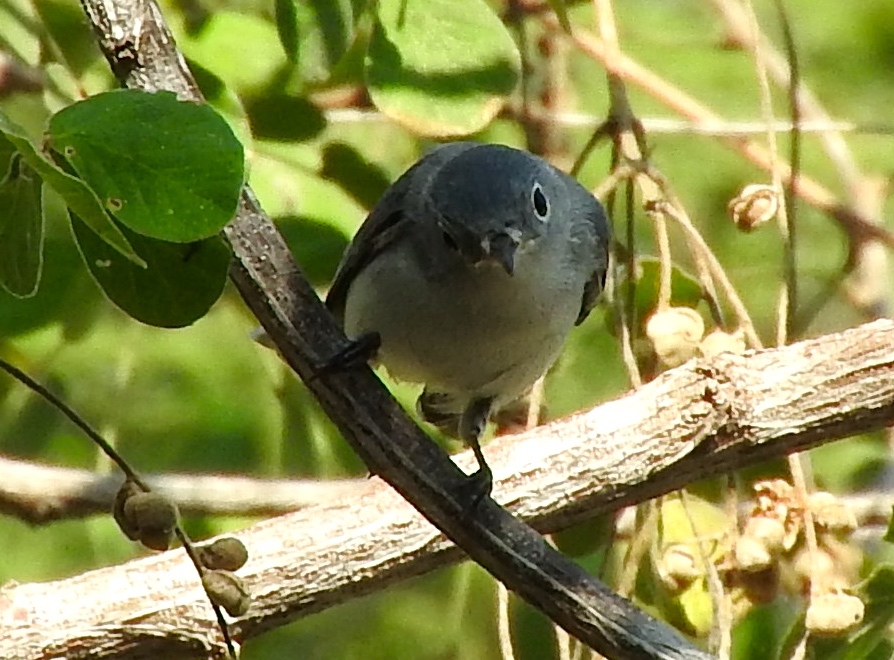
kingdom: Animalia
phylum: Chordata
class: Aves
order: Passeriformes
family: Polioptilidae
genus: Polioptila
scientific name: Polioptila caerulea
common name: Blue-gray gnatcatcher
